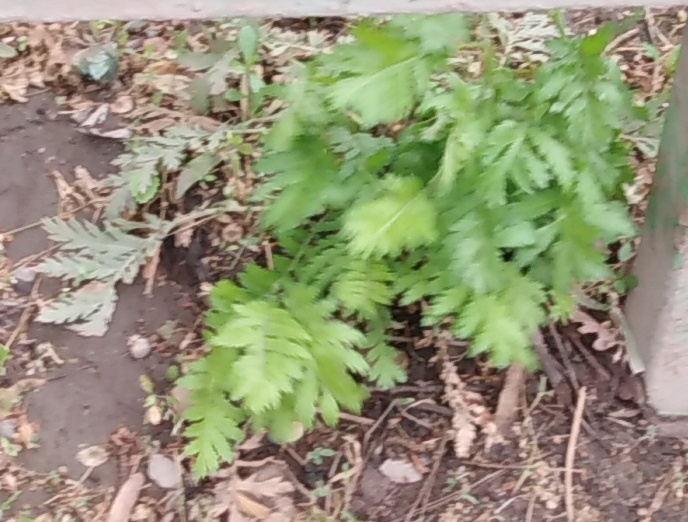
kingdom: Plantae
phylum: Tracheophyta
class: Magnoliopsida
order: Asterales
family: Asteraceae
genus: Tanacetum
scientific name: Tanacetum vulgare
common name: Common tansy
